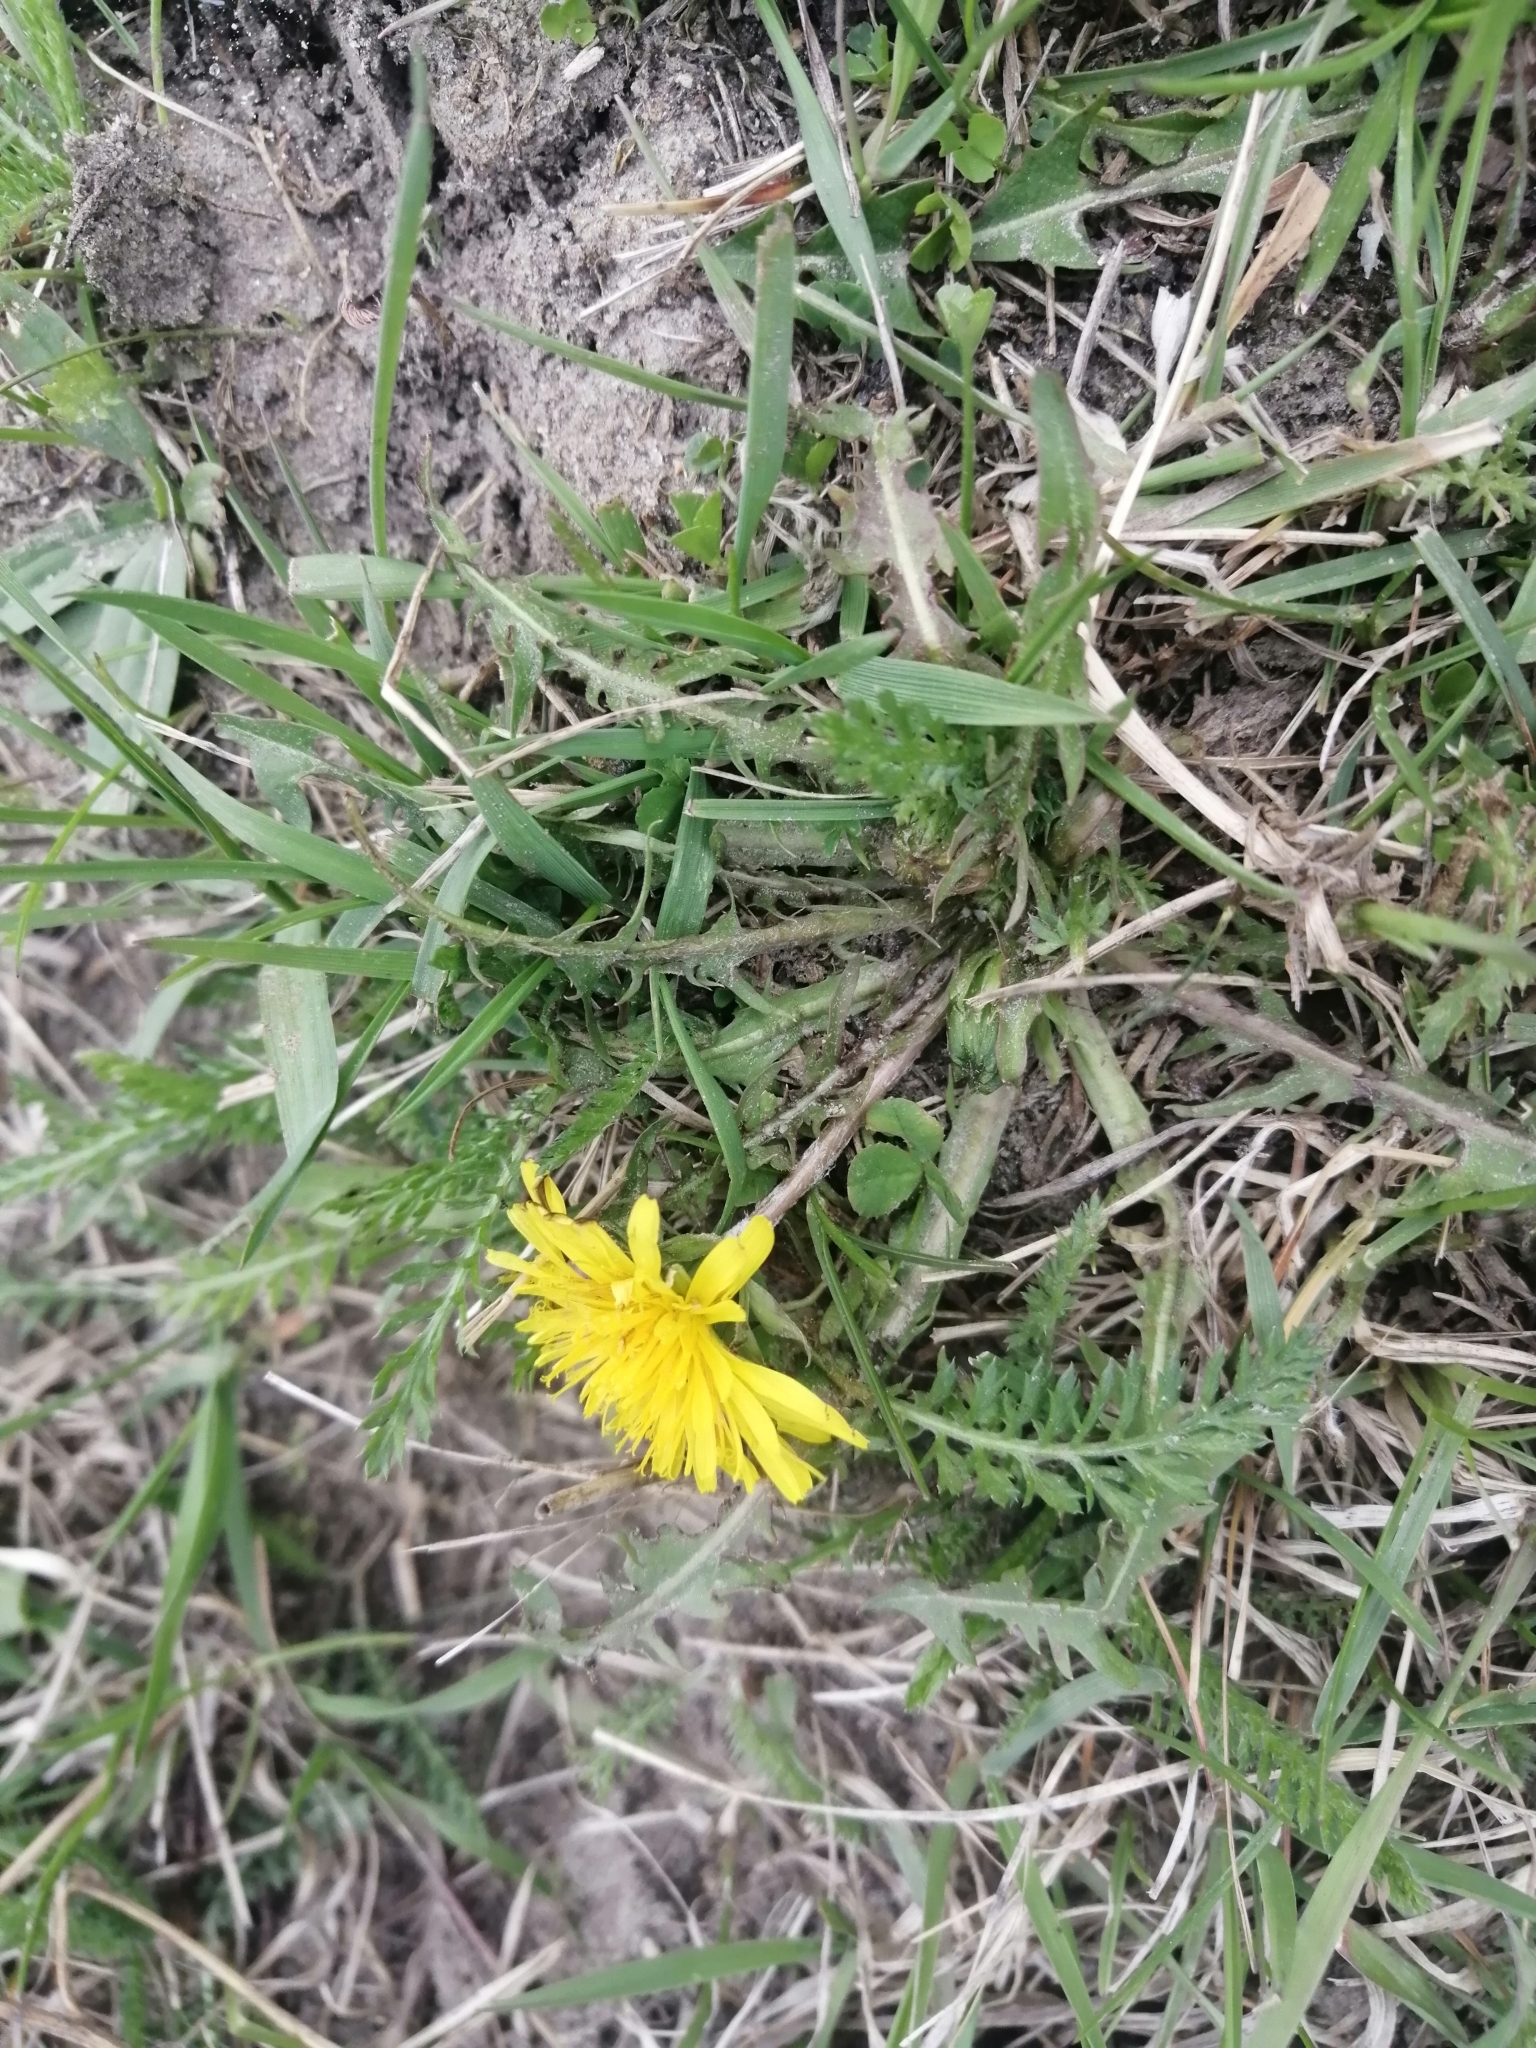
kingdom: Plantae
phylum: Tracheophyta
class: Magnoliopsida
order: Asterales
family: Asteraceae
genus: Taraxacum
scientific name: Taraxacum officinale
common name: Common dandelion
